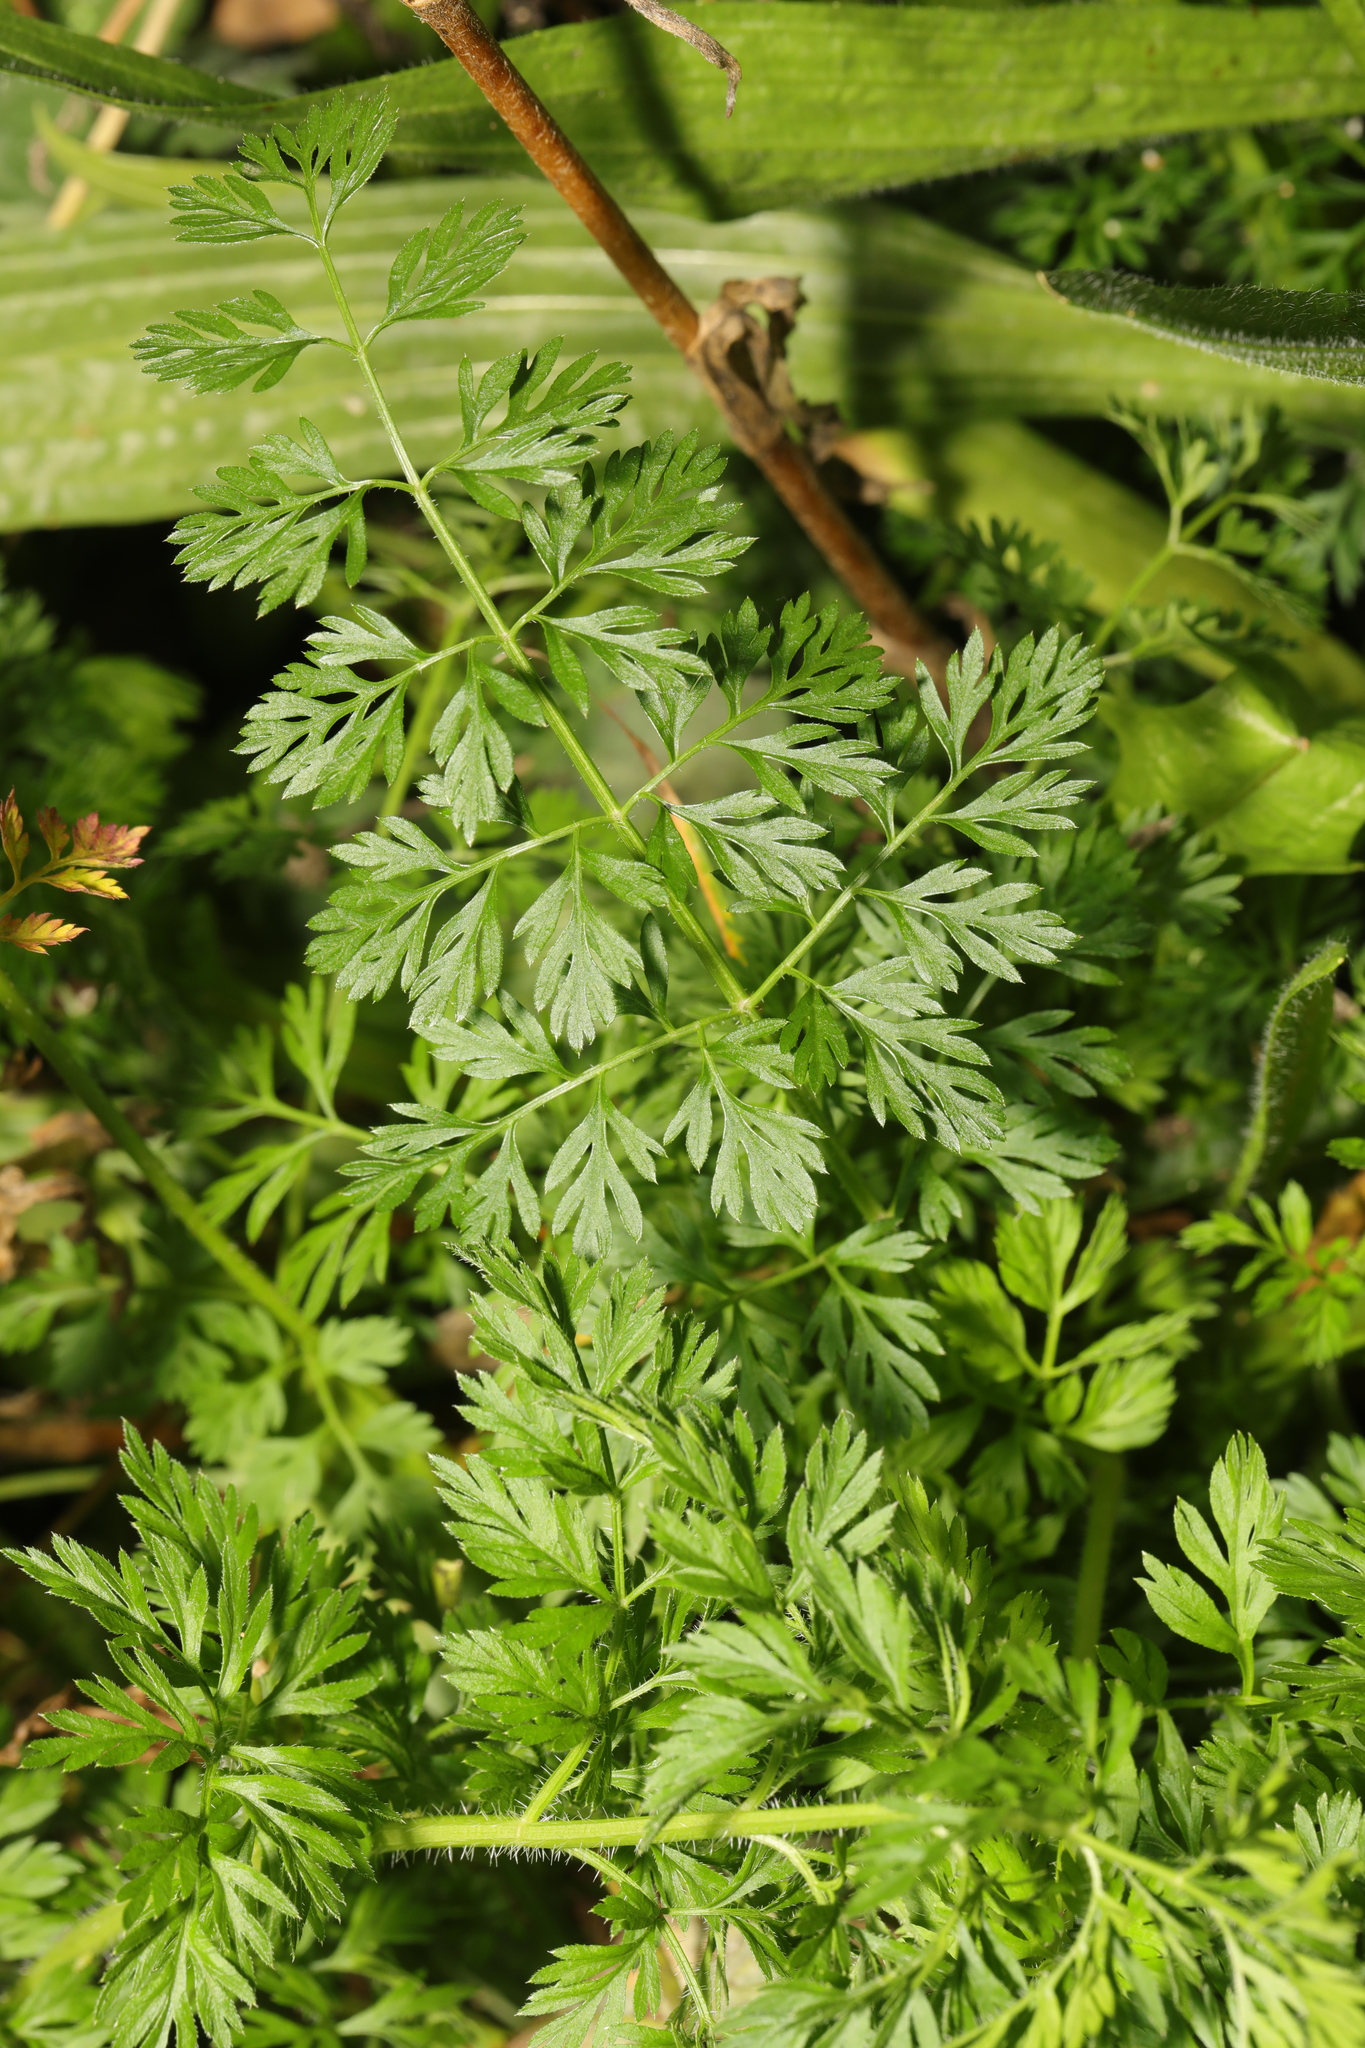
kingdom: Plantae
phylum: Tracheophyta
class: Magnoliopsida
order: Apiales
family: Apiaceae
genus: Anthriscus
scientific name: Anthriscus sylvestris
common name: Cow parsley
